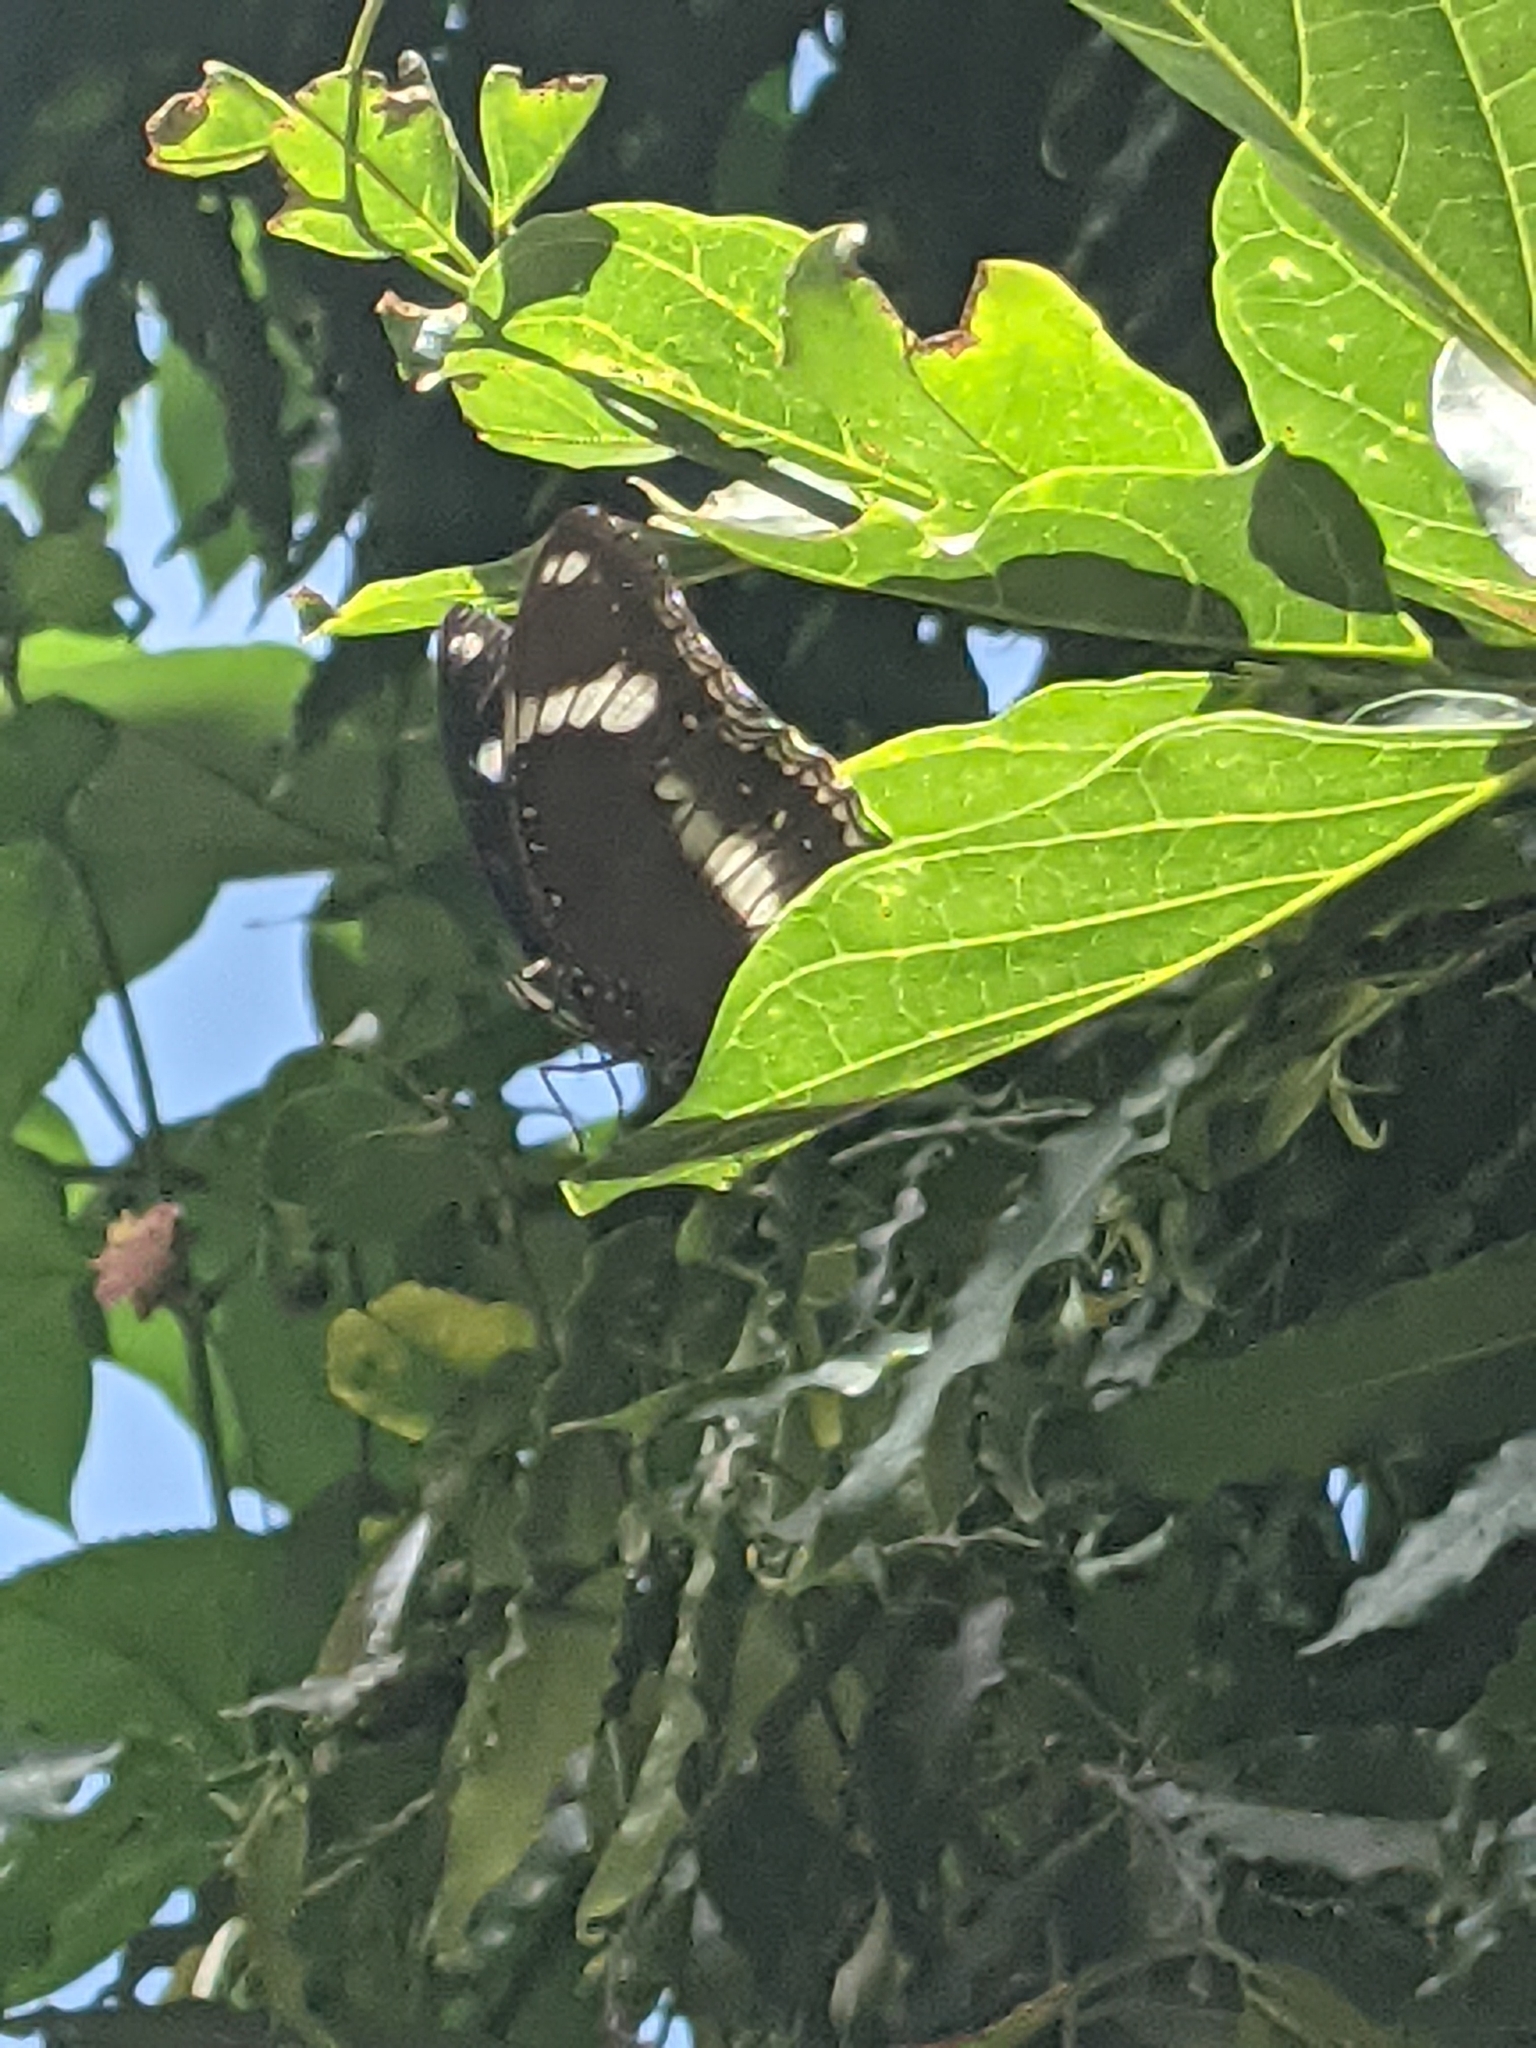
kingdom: Animalia
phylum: Arthropoda
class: Insecta
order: Lepidoptera
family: Nymphalidae
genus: Hypolimnas
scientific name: Hypolimnas bolina
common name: Great eggfly
